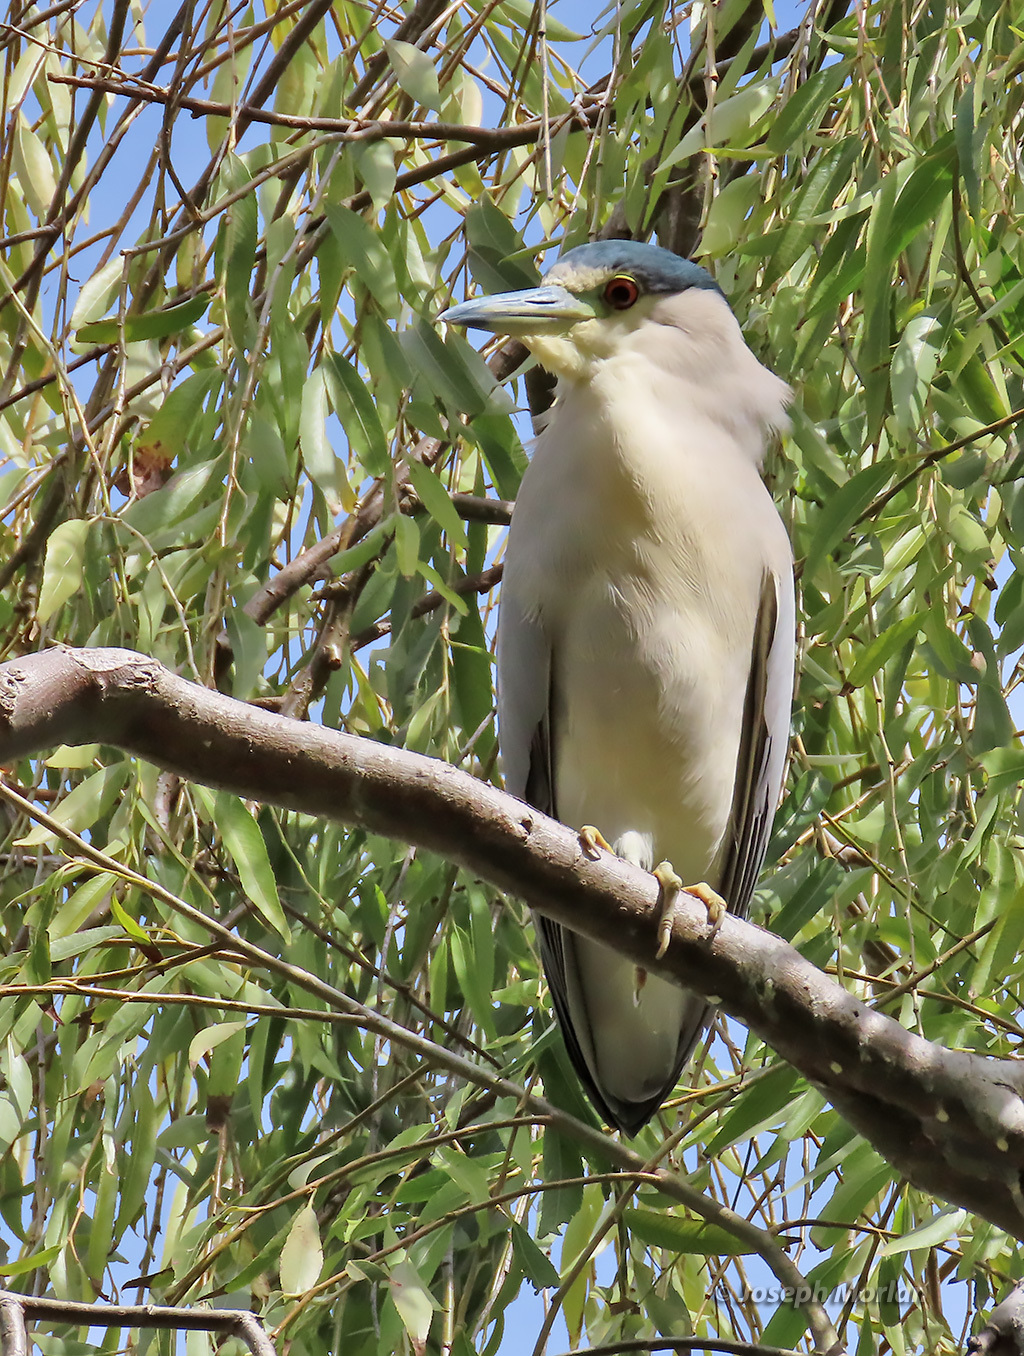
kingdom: Animalia
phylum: Chordata
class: Aves
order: Pelecaniformes
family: Ardeidae
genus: Nycticorax
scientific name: Nycticorax nycticorax
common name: Black-crowned night heron
